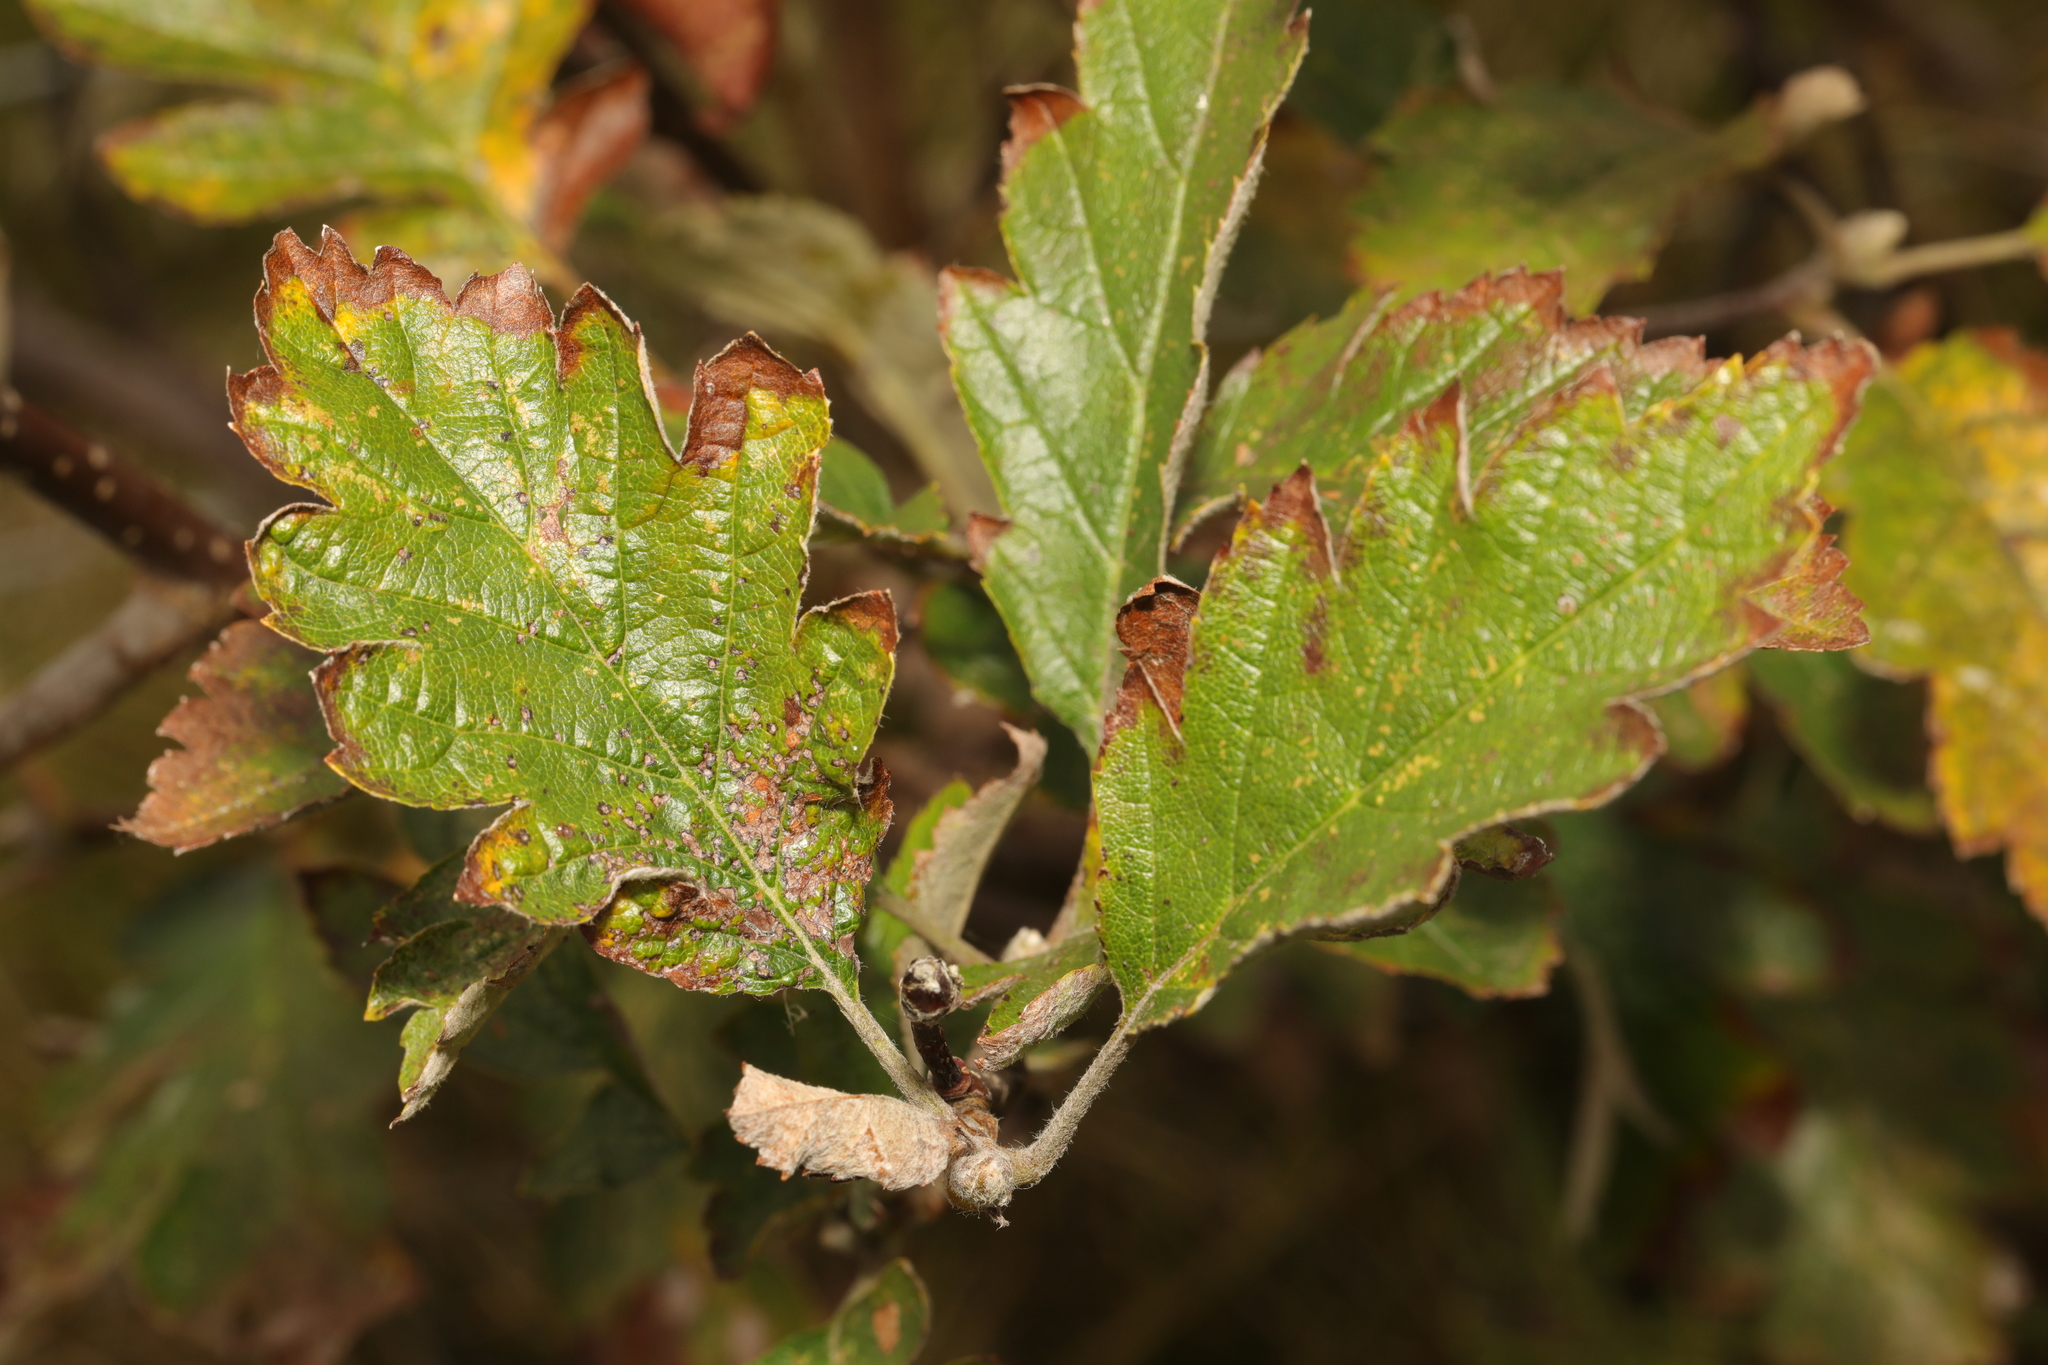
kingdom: Plantae
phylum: Tracheophyta
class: Magnoliopsida
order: Rosales
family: Rosaceae
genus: Scandosorbus
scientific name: Scandosorbus intermedia
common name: Swedish whitebeam
